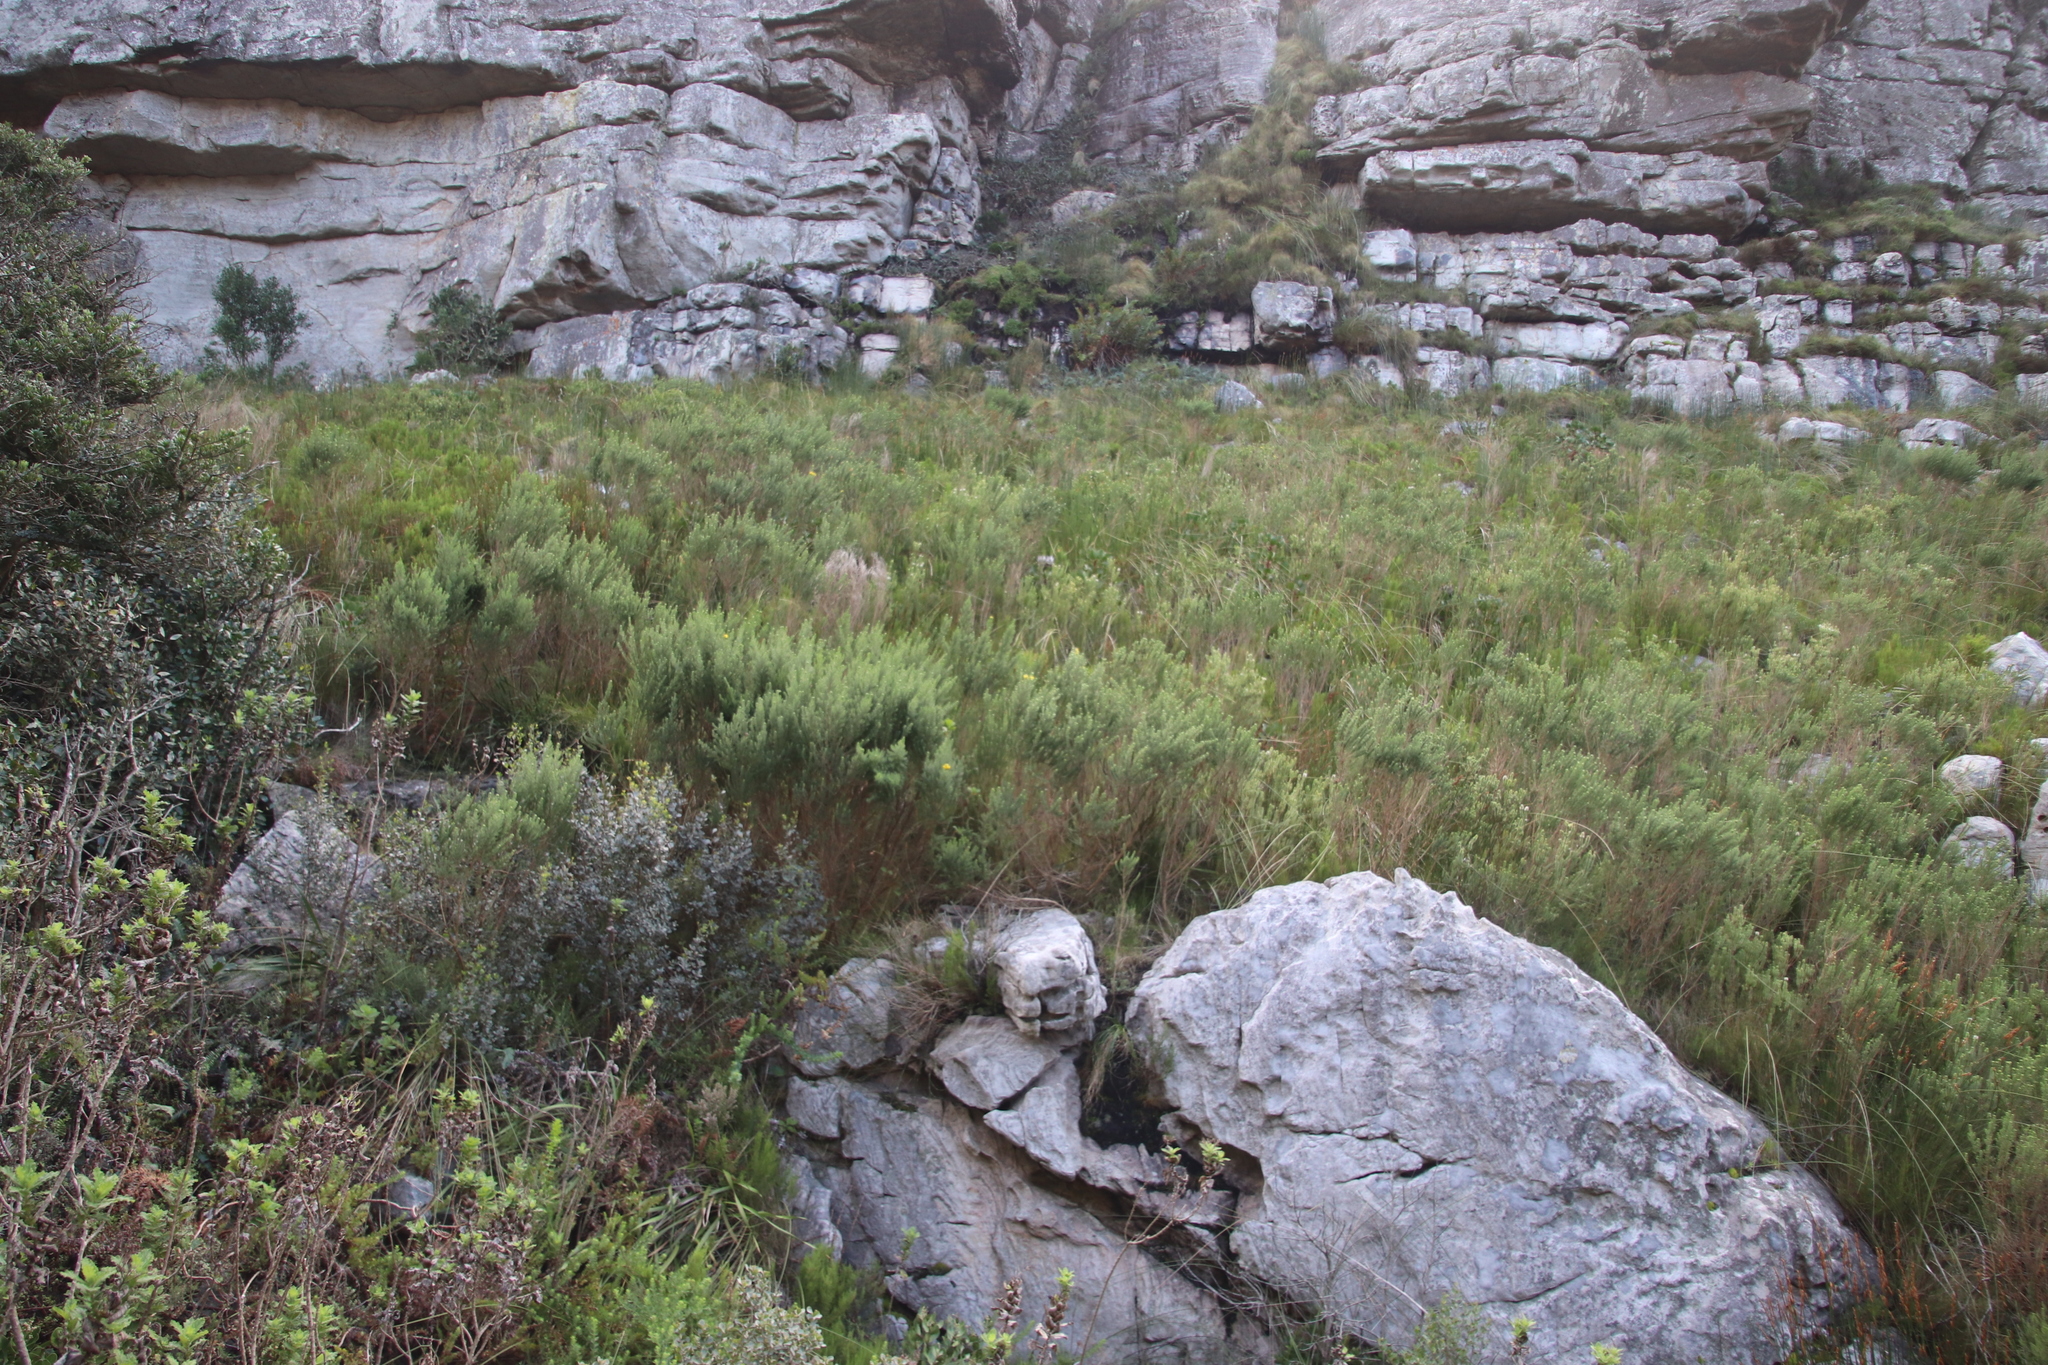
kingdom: Plantae
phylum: Tracheophyta
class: Magnoliopsida
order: Fabales
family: Fabaceae
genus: Aspalathus
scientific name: Aspalathus chenopoda
